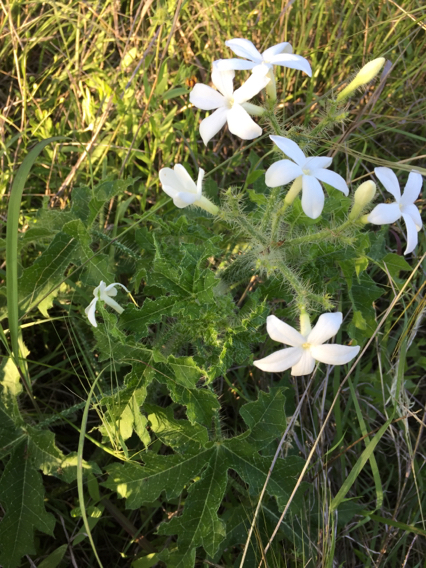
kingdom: Plantae
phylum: Tracheophyta
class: Magnoliopsida
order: Malpighiales
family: Euphorbiaceae
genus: Cnidoscolus
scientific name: Cnidoscolus texanus
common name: Texas bull-nettle
